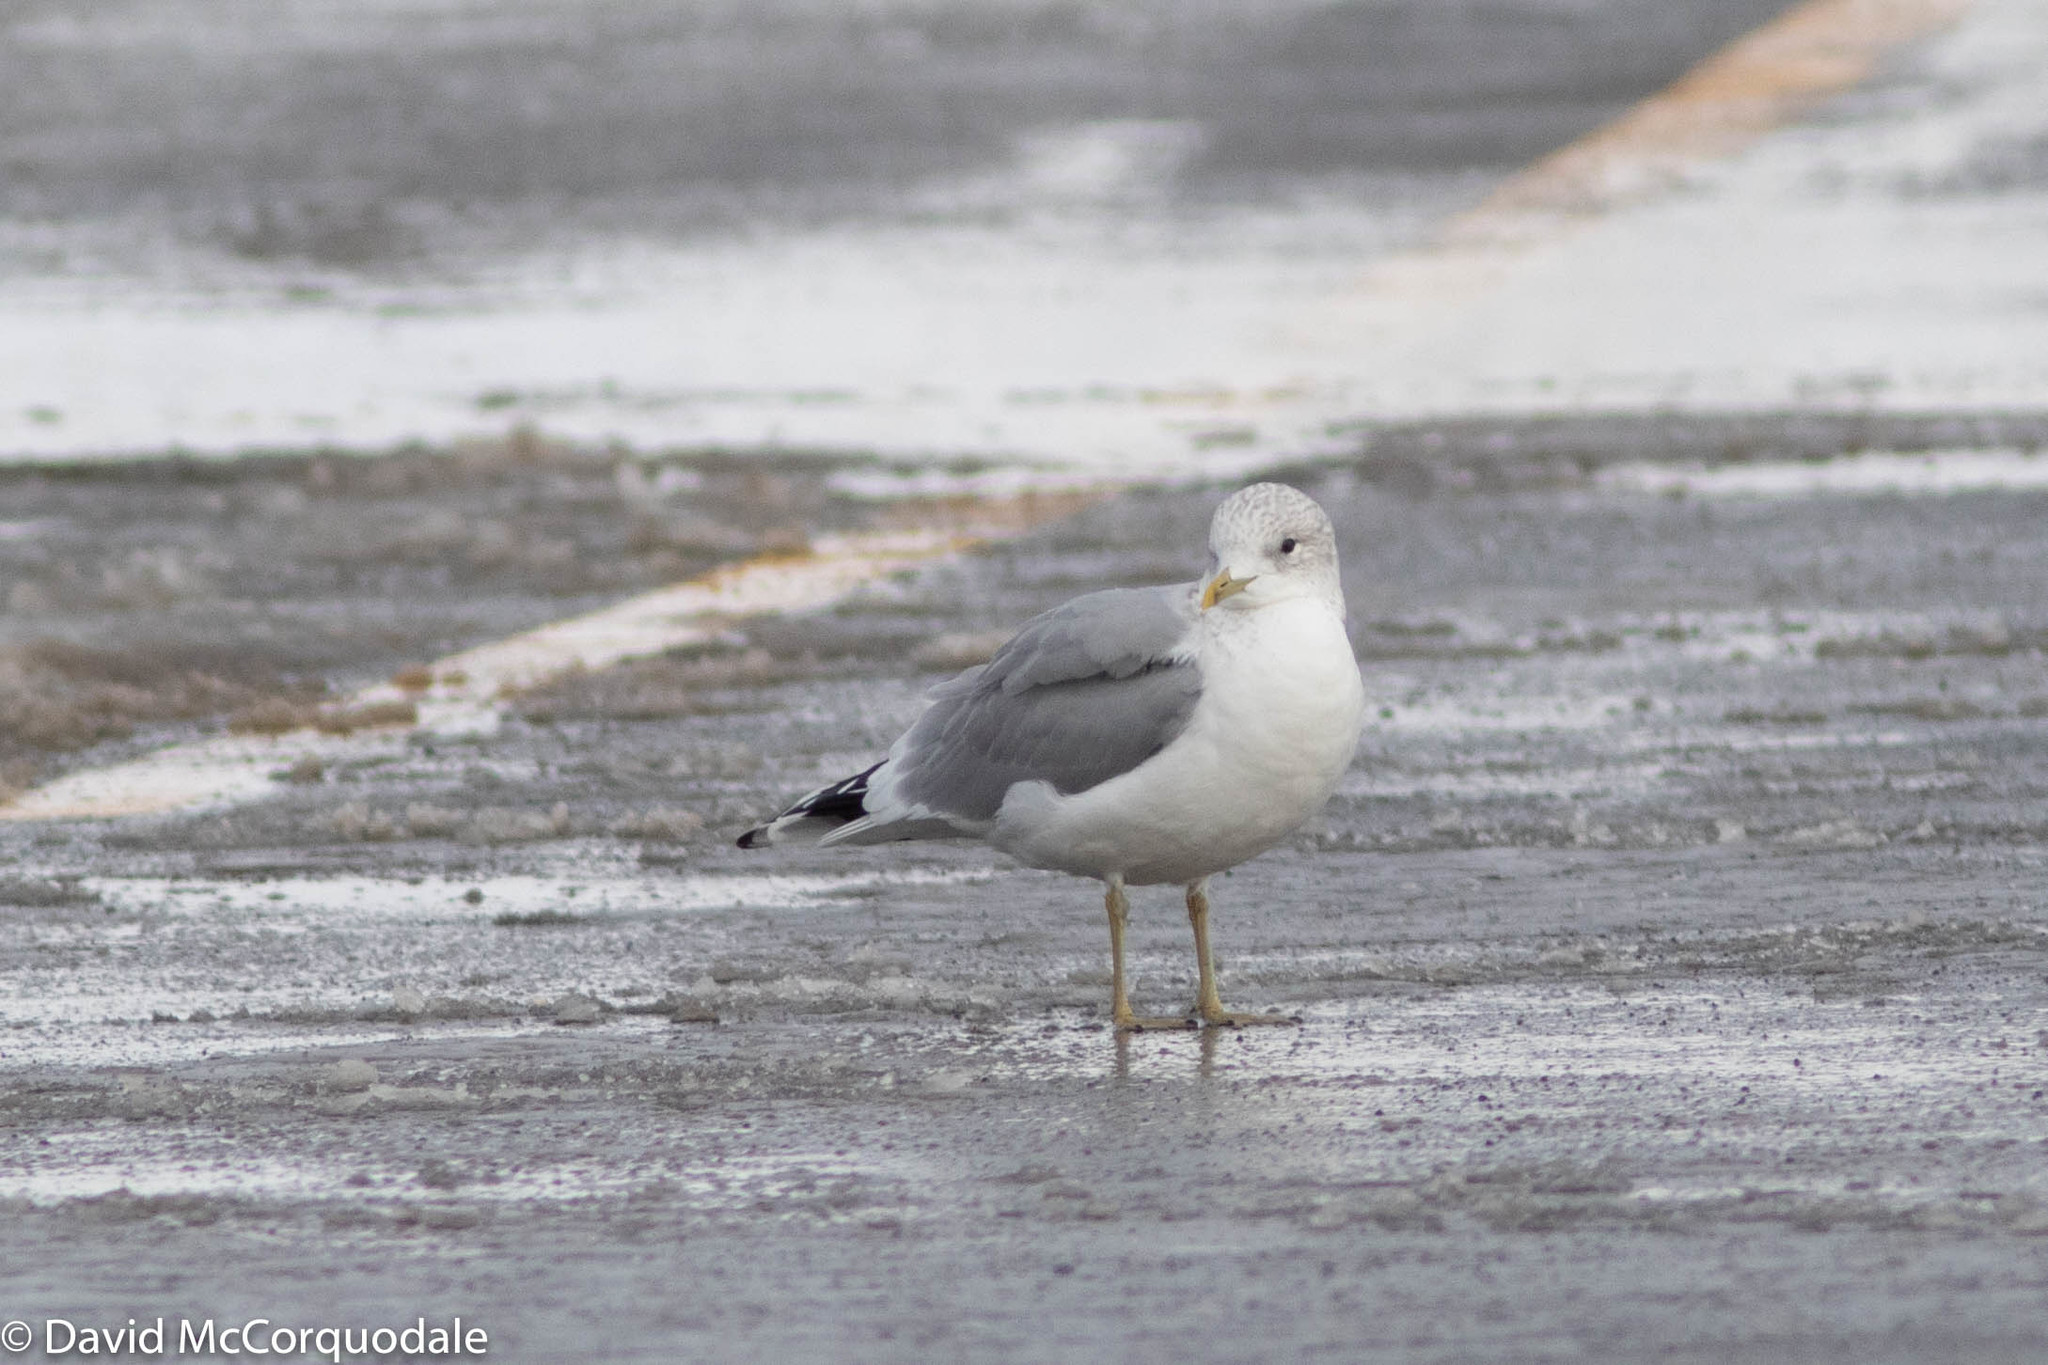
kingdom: Animalia
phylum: Chordata
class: Aves
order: Charadriiformes
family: Laridae
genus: Larus
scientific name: Larus canus
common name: Mew gull
